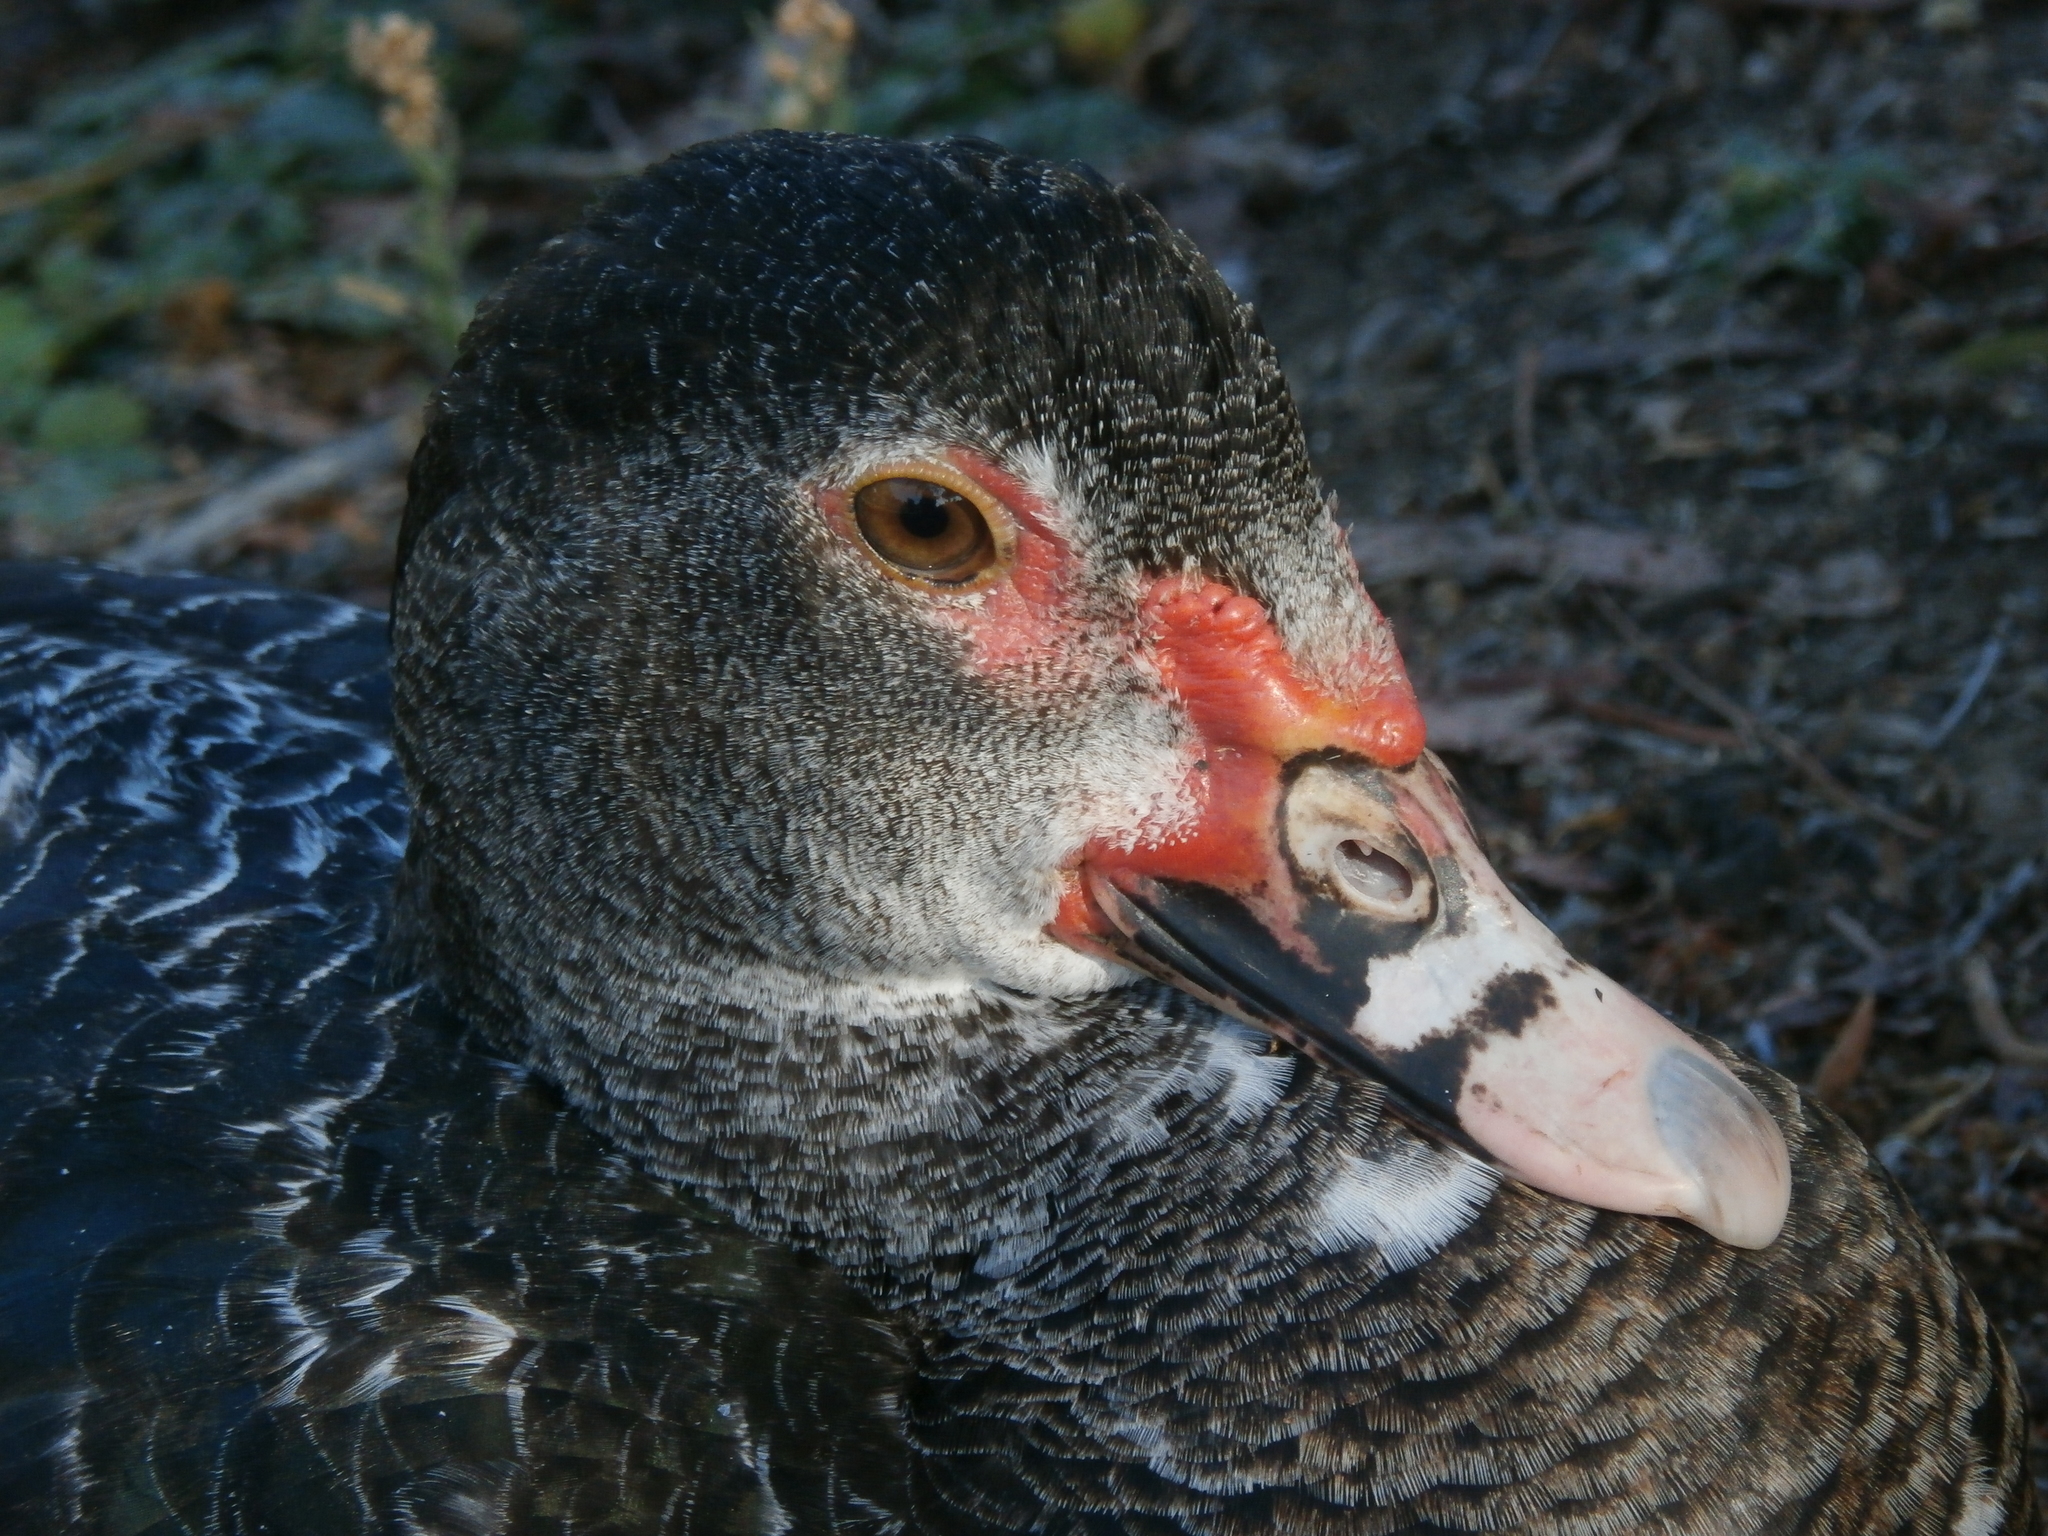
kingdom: Animalia
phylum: Chordata
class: Aves
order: Anseriformes
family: Anatidae
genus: Cairina
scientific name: Cairina moschata
